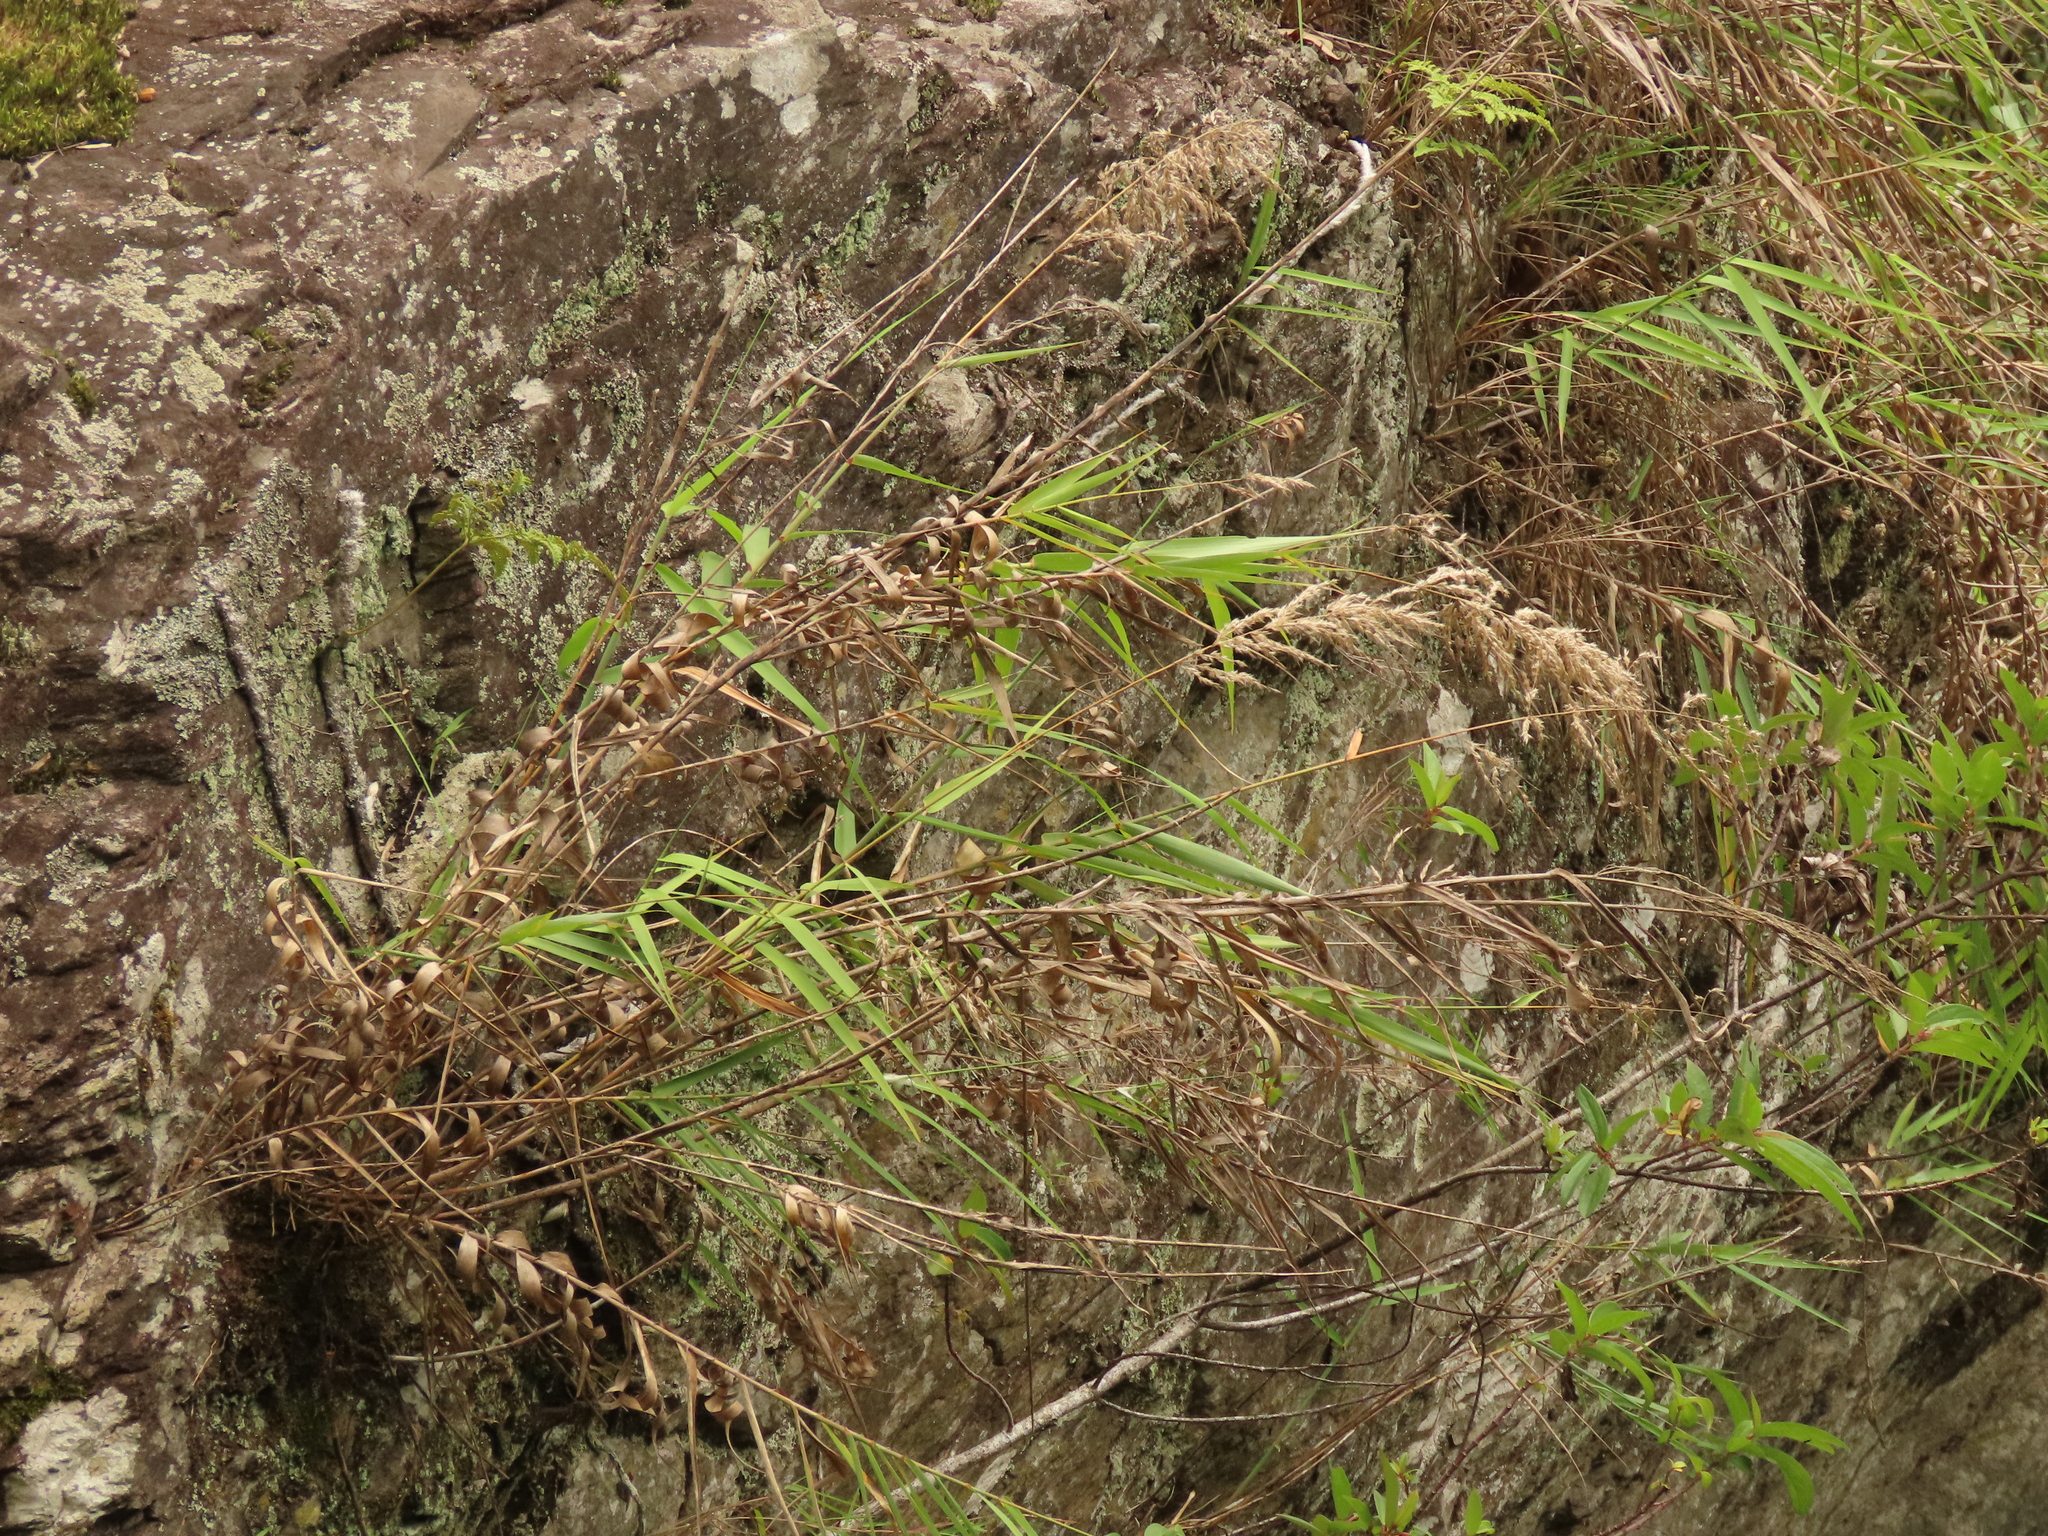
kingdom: Plantae
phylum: Tracheophyta
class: Liliopsida
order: Poales
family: Poaceae
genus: Arundo
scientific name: Arundo formosana
